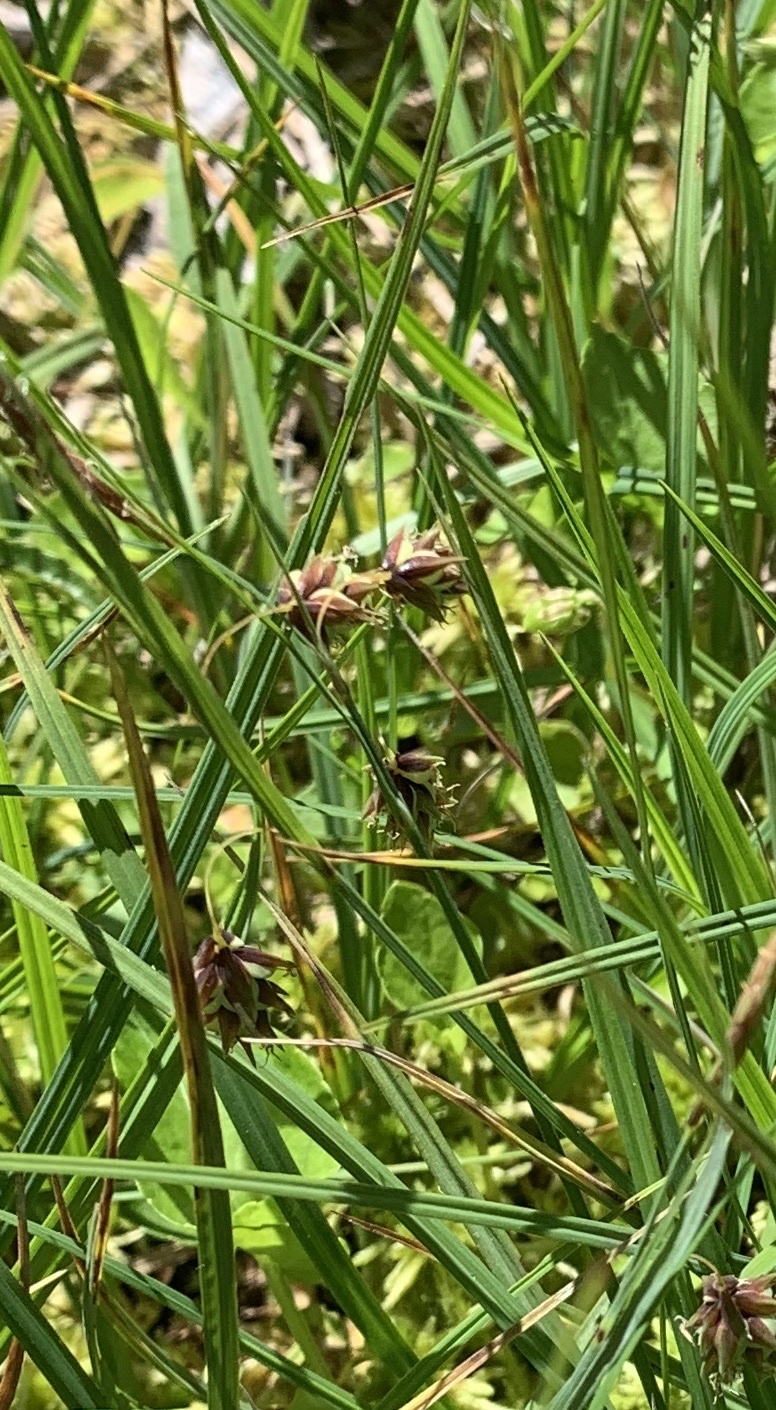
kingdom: Plantae
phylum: Tracheophyta
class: Liliopsida
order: Poales
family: Cyperaceae
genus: Carex
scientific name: Carex magellanica
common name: Bog sedge
